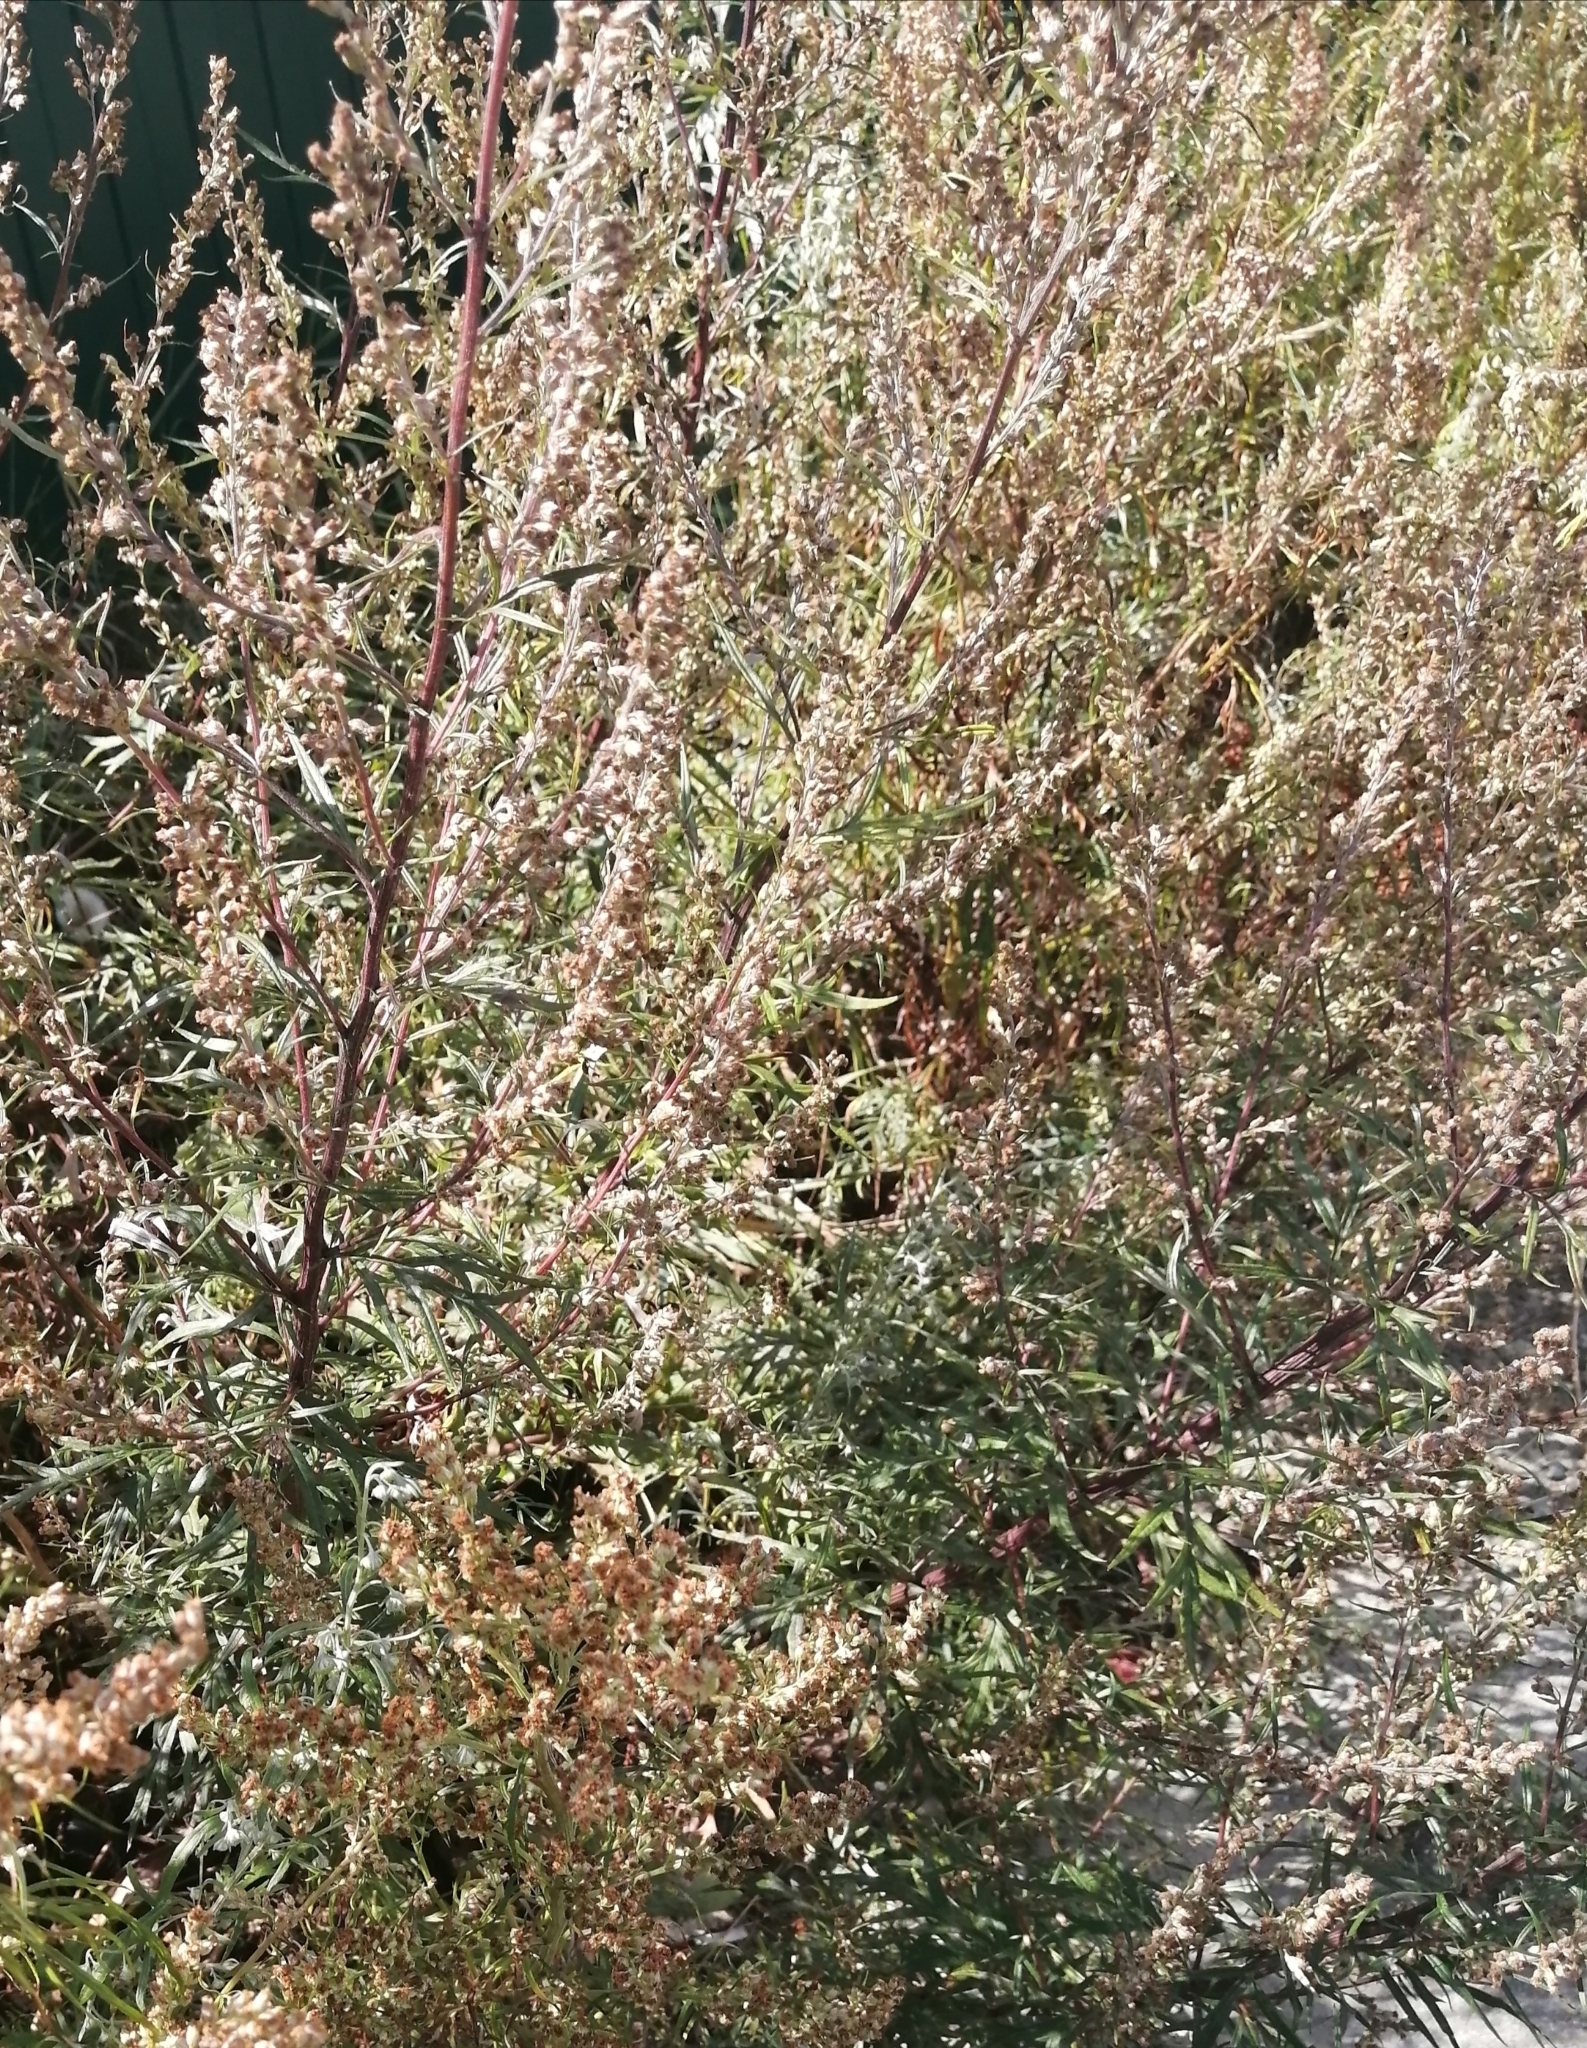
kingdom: Plantae
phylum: Tracheophyta
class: Magnoliopsida
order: Asterales
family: Asteraceae
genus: Artemisia
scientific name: Artemisia vulgaris
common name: Mugwort
